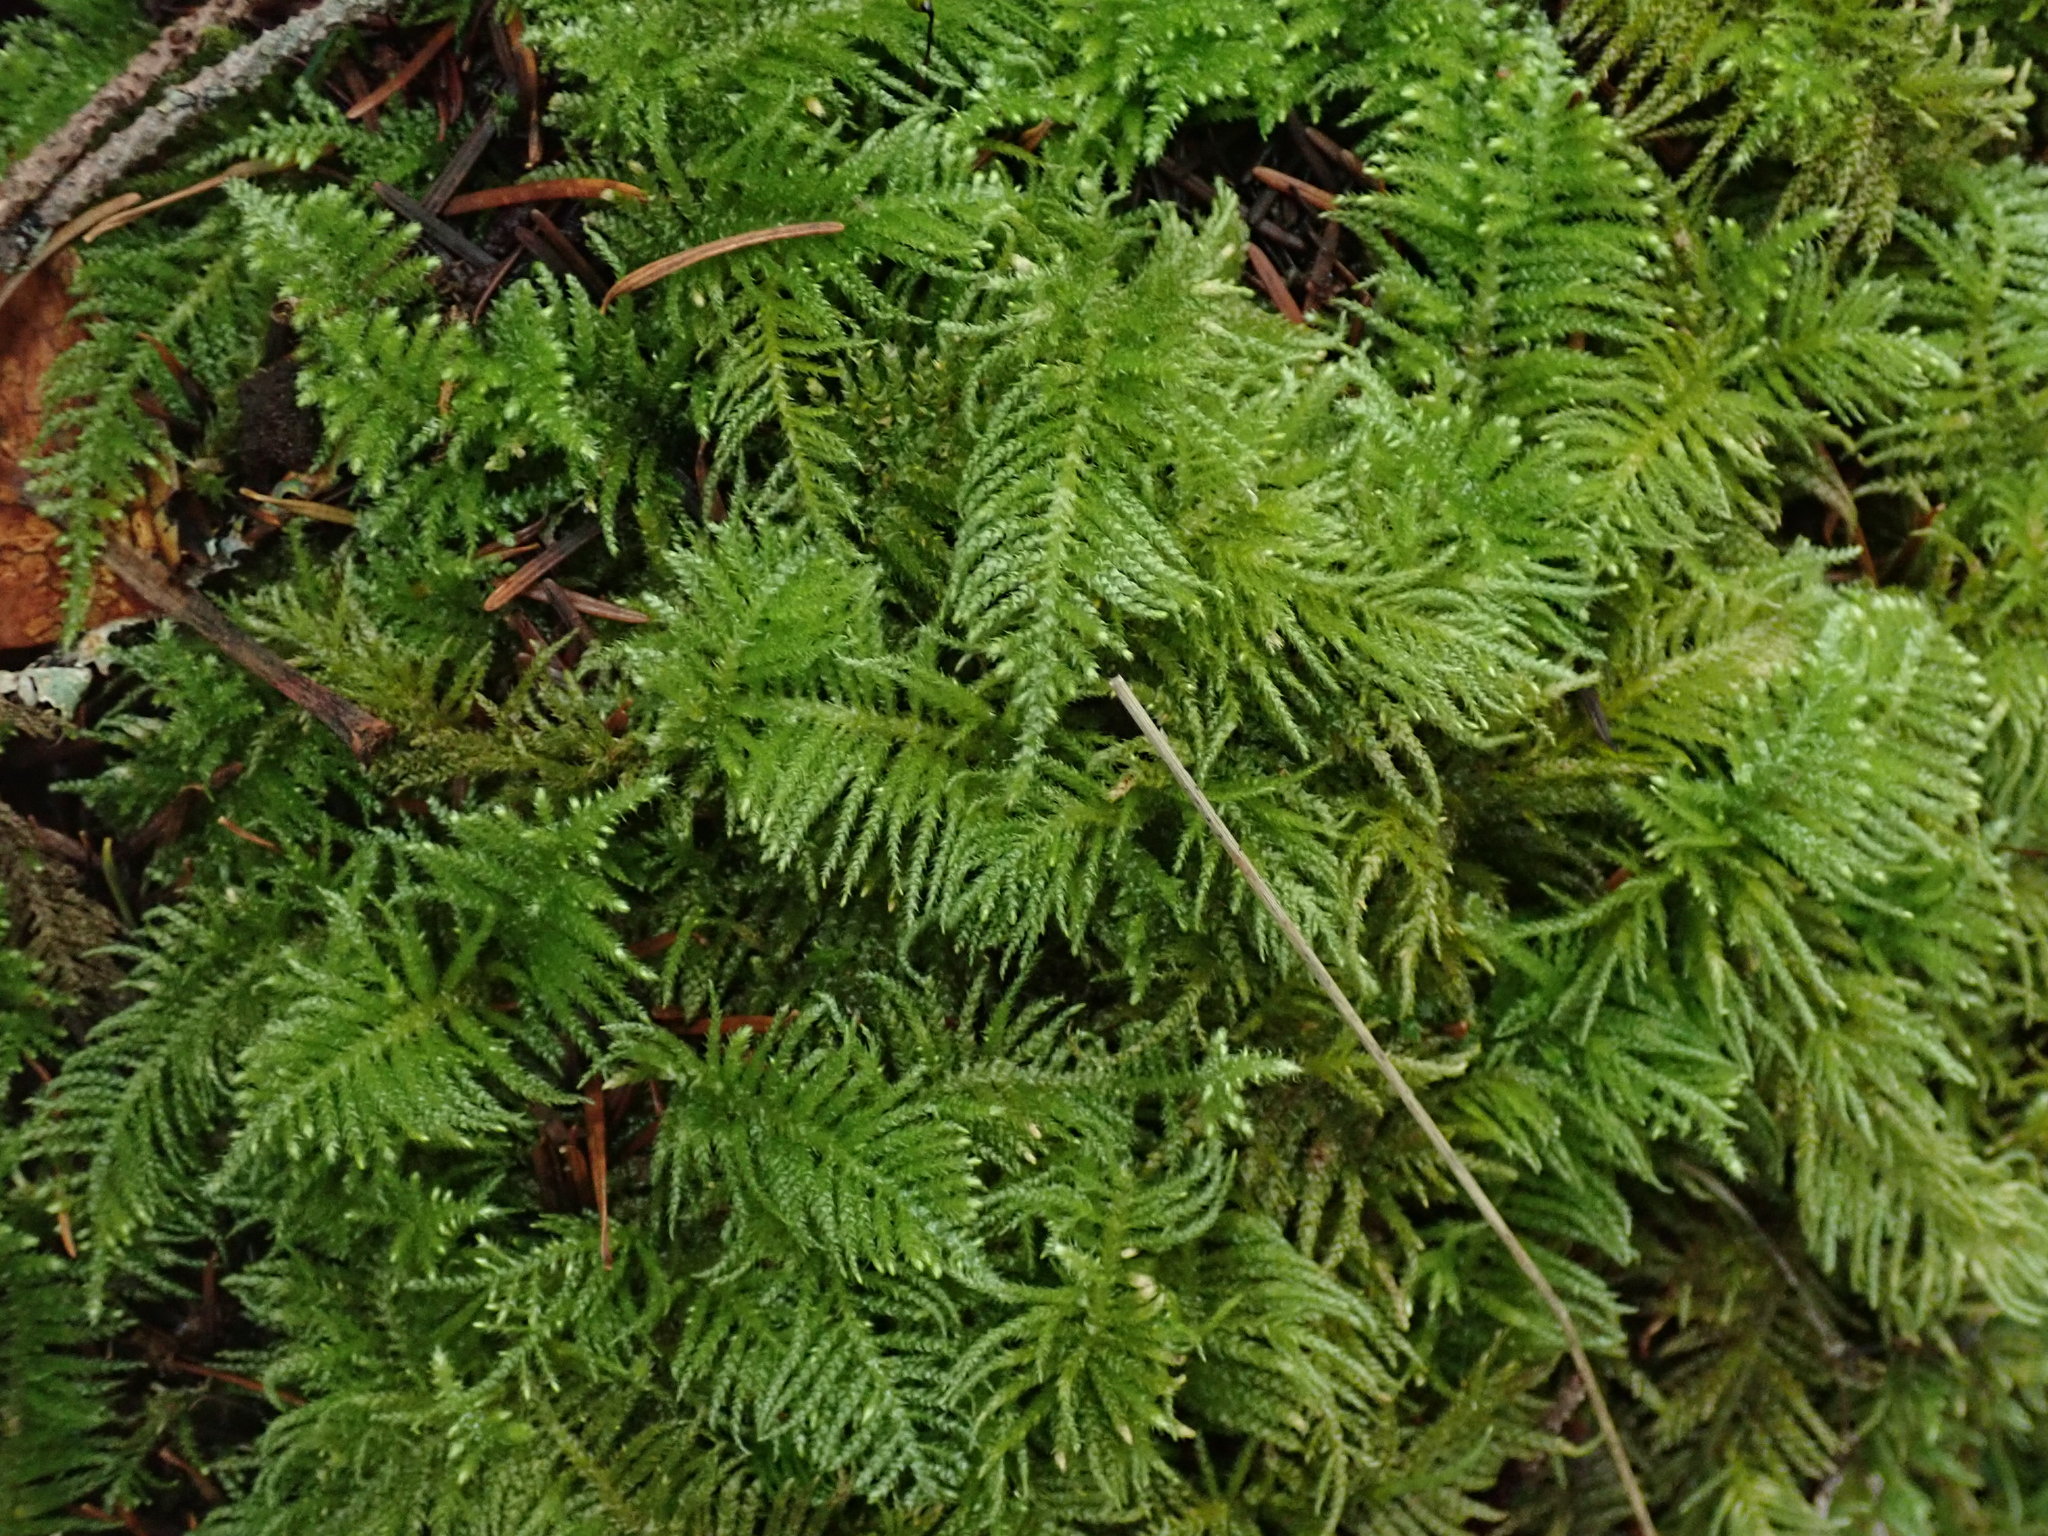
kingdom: Plantae
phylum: Bryophyta
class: Bryopsida
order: Hypnales
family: Brachytheciaceae
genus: Kindbergia
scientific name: Kindbergia oregana
